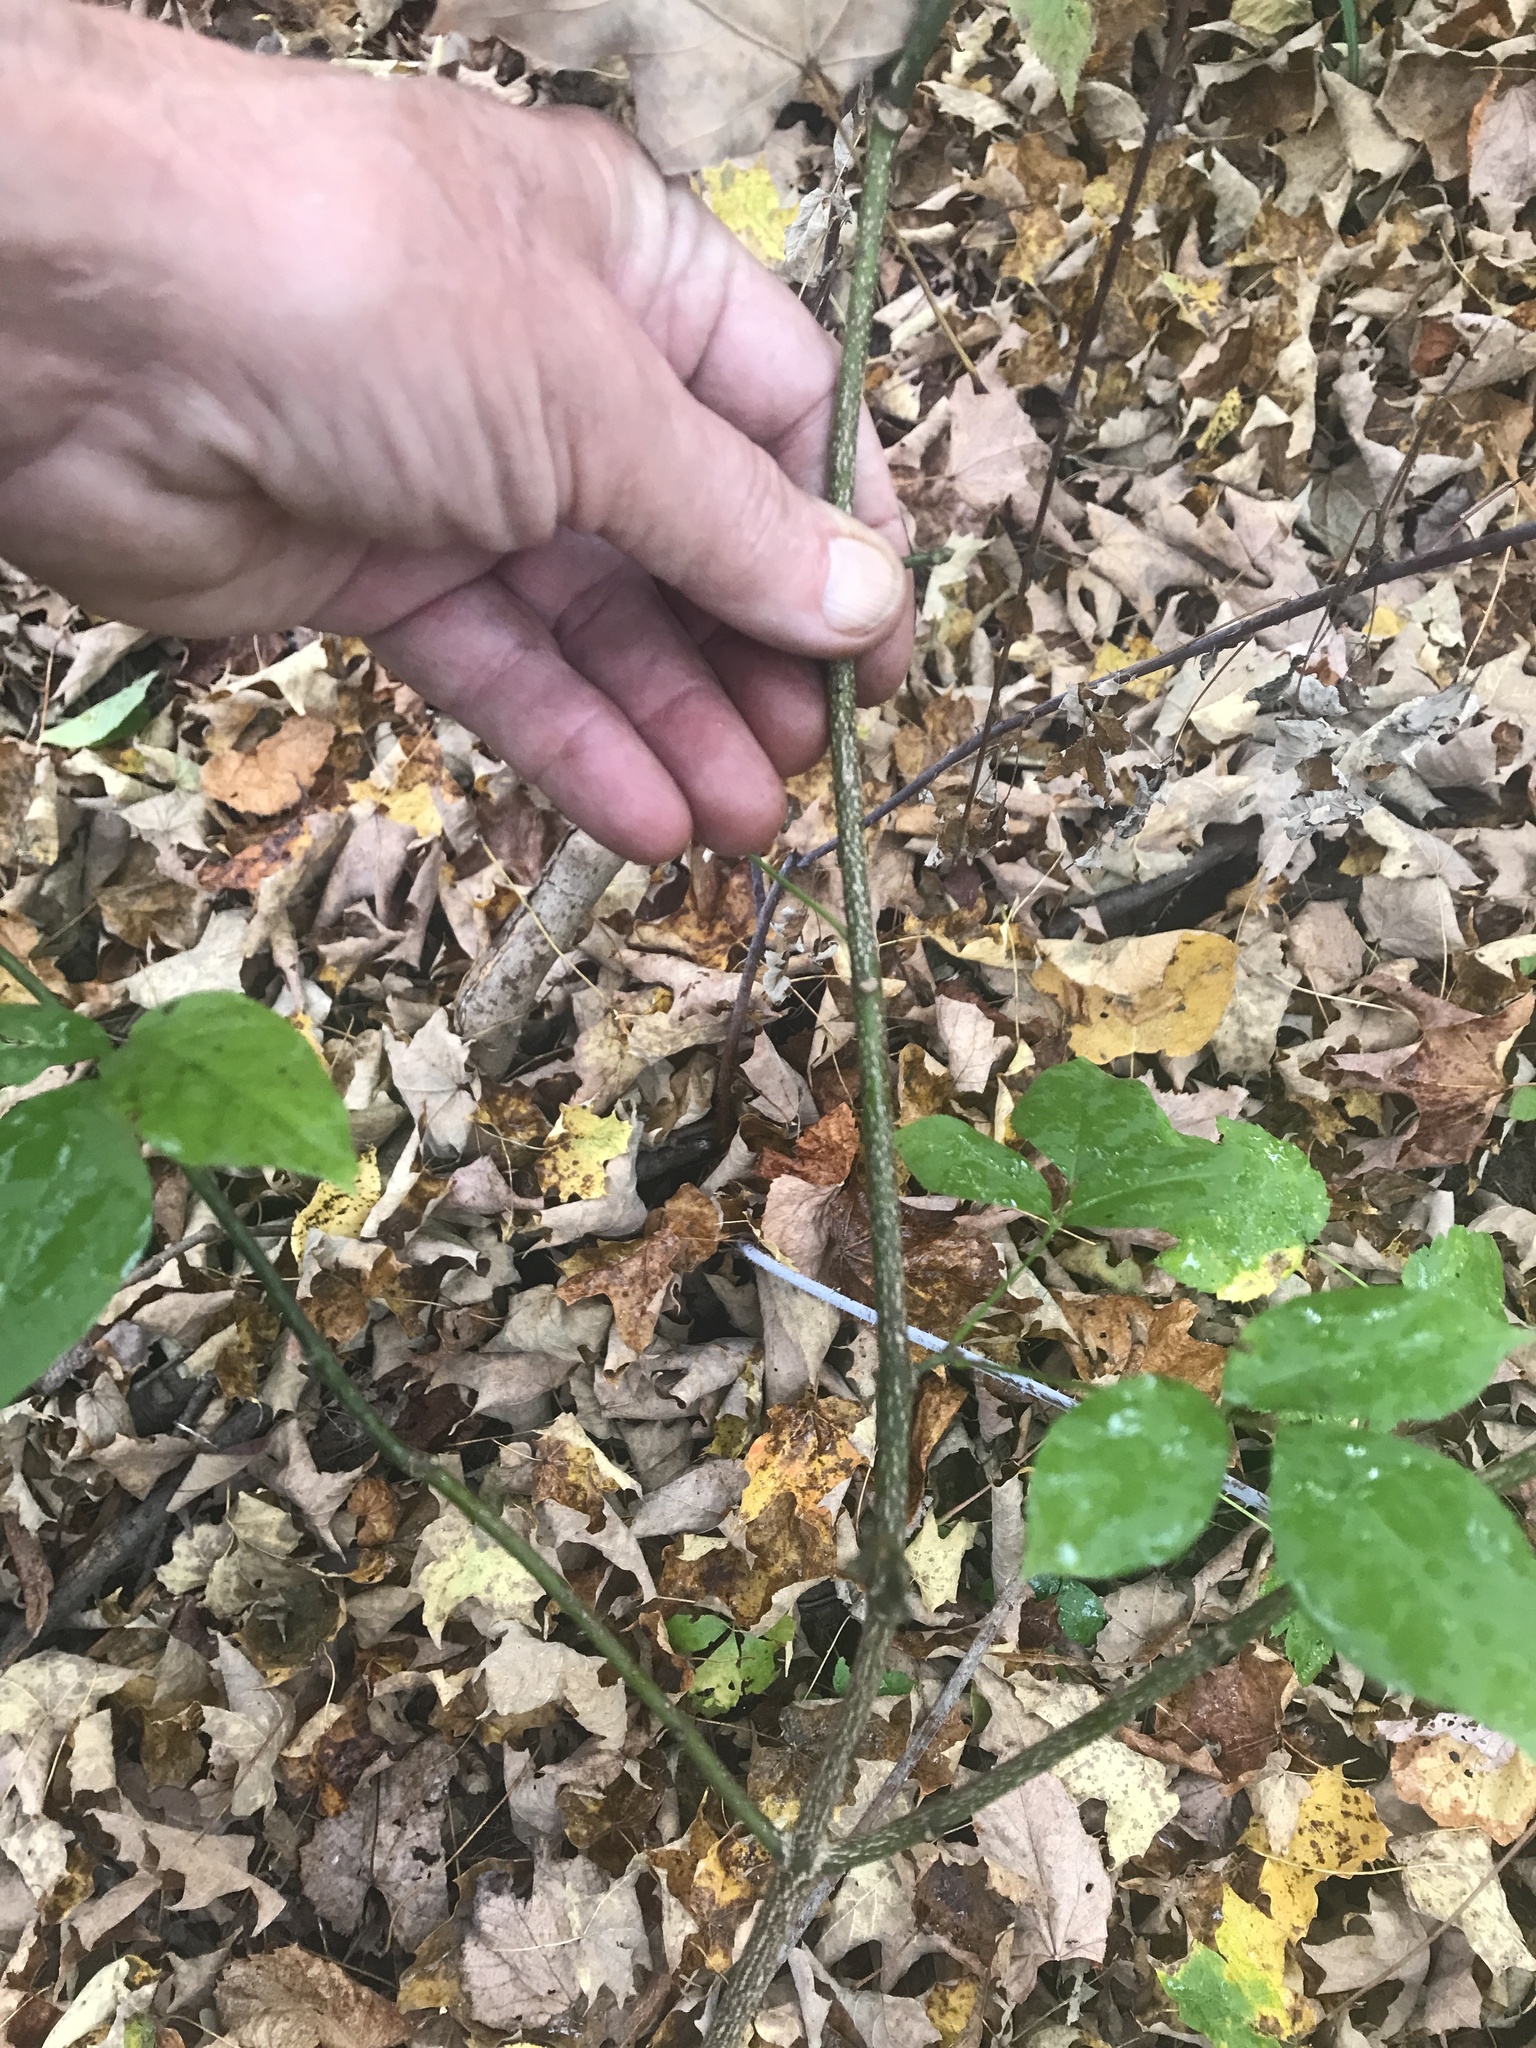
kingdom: Plantae
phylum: Tracheophyta
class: Magnoliopsida
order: Crossosomatales
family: Staphyleaceae
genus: Staphylea
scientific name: Staphylea trifolia
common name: American bladdernut
